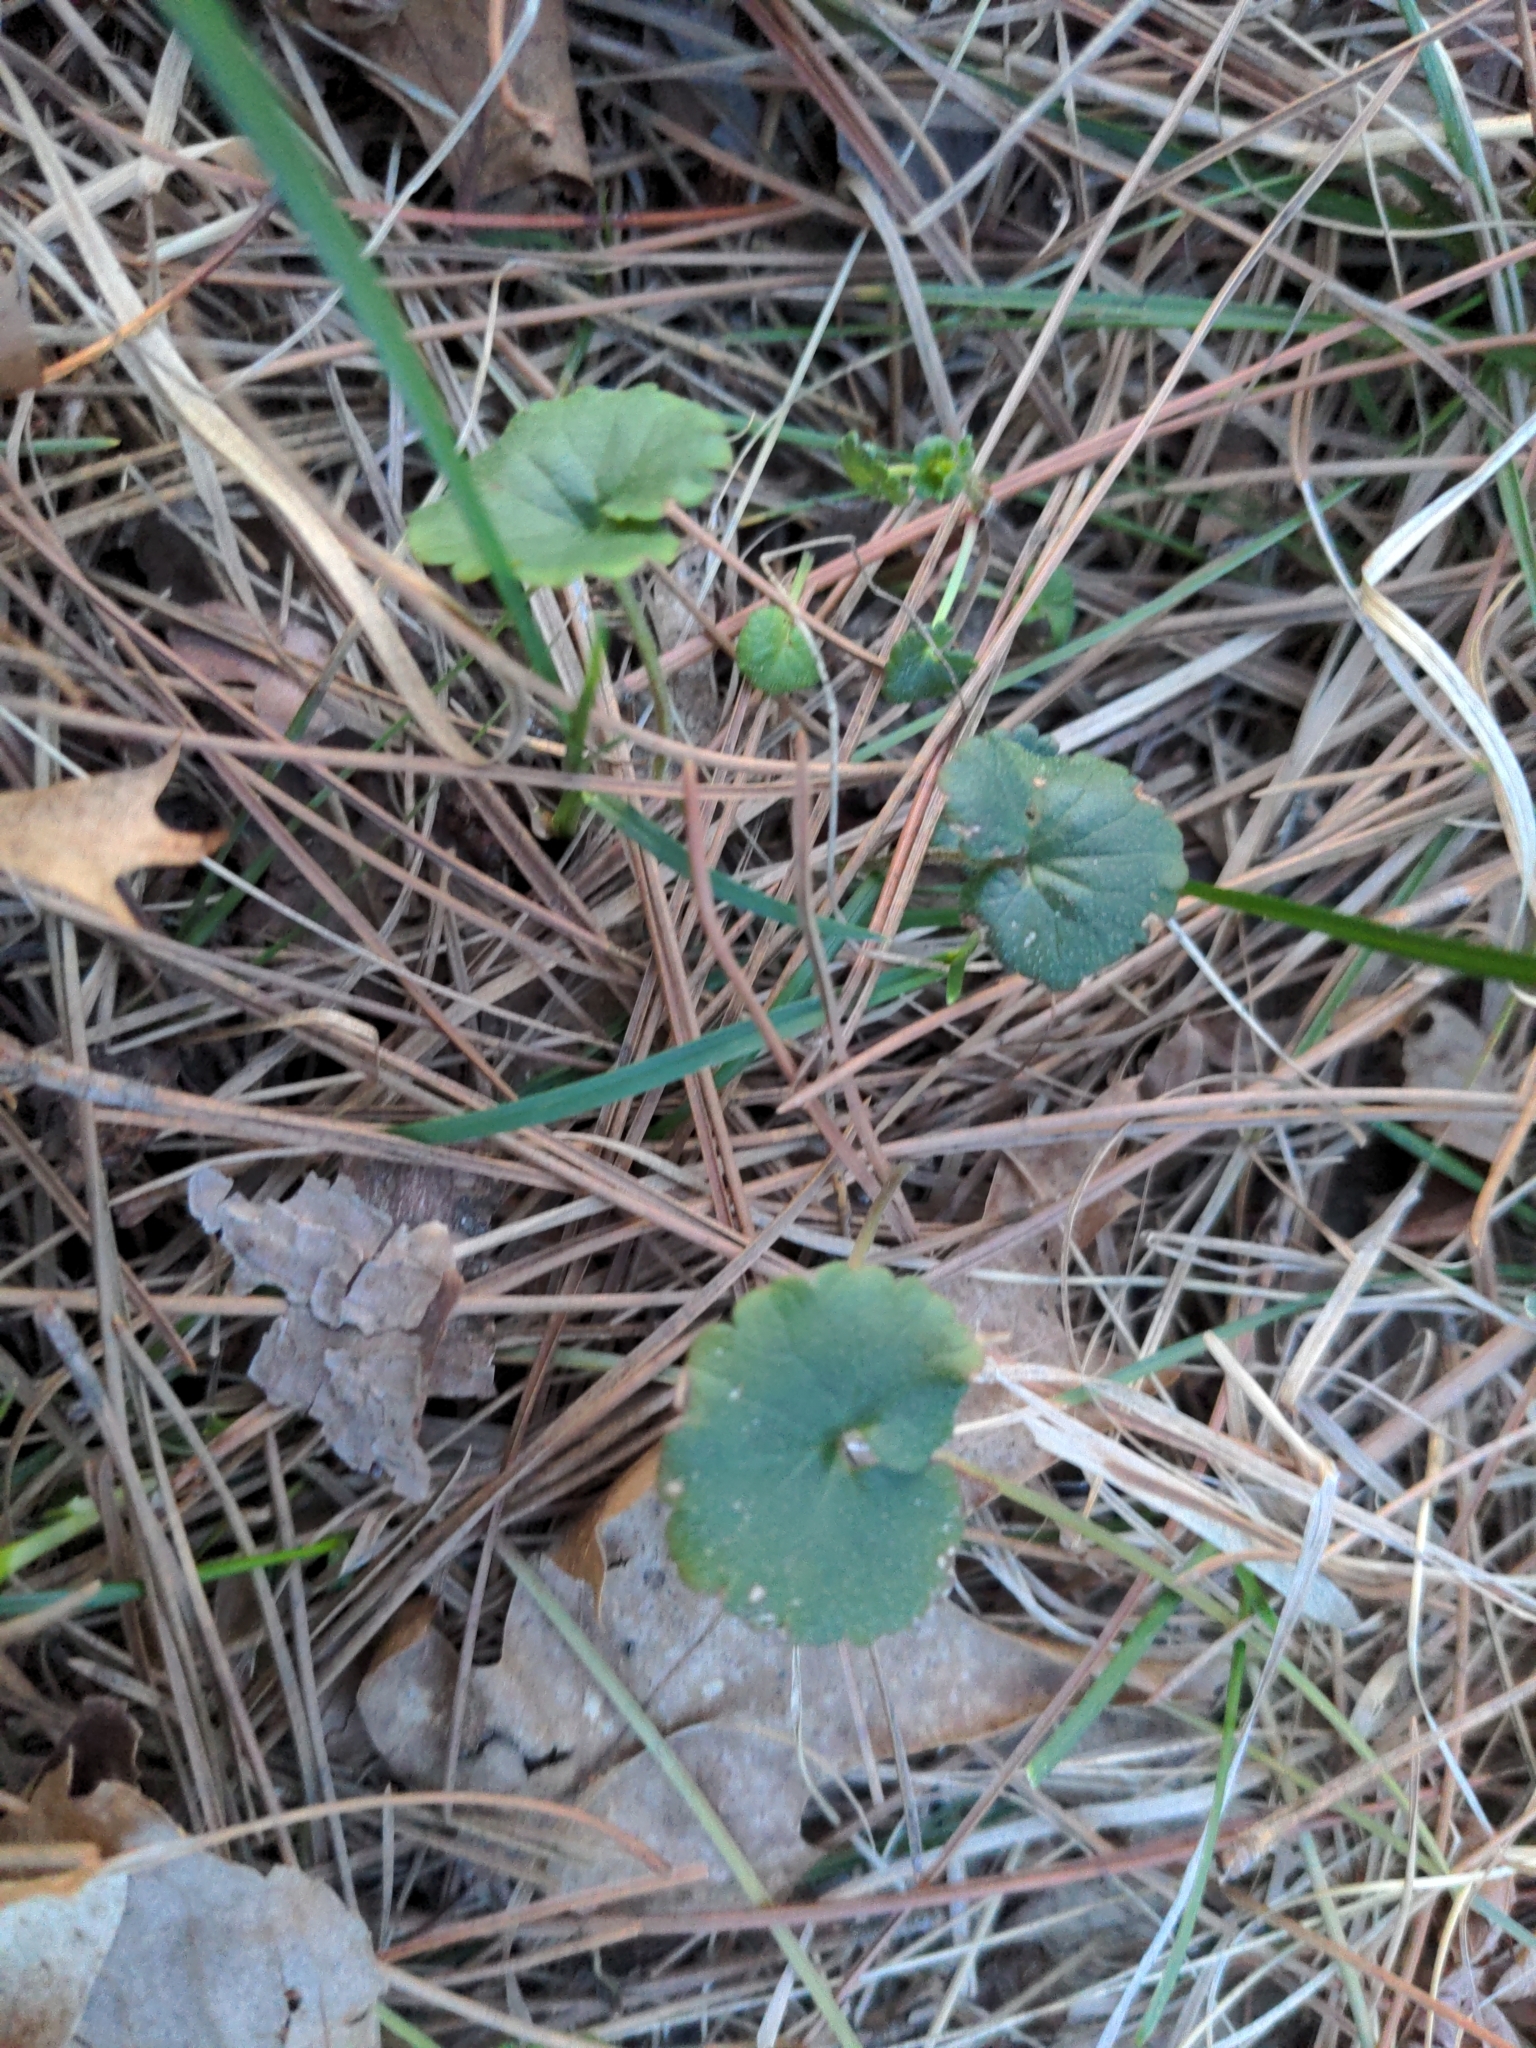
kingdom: Plantae
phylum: Tracheophyta
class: Magnoliopsida
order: Lamiales
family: Lamiaceae
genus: Glechoma
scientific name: Glechoma hederacea
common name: Ground ivy
